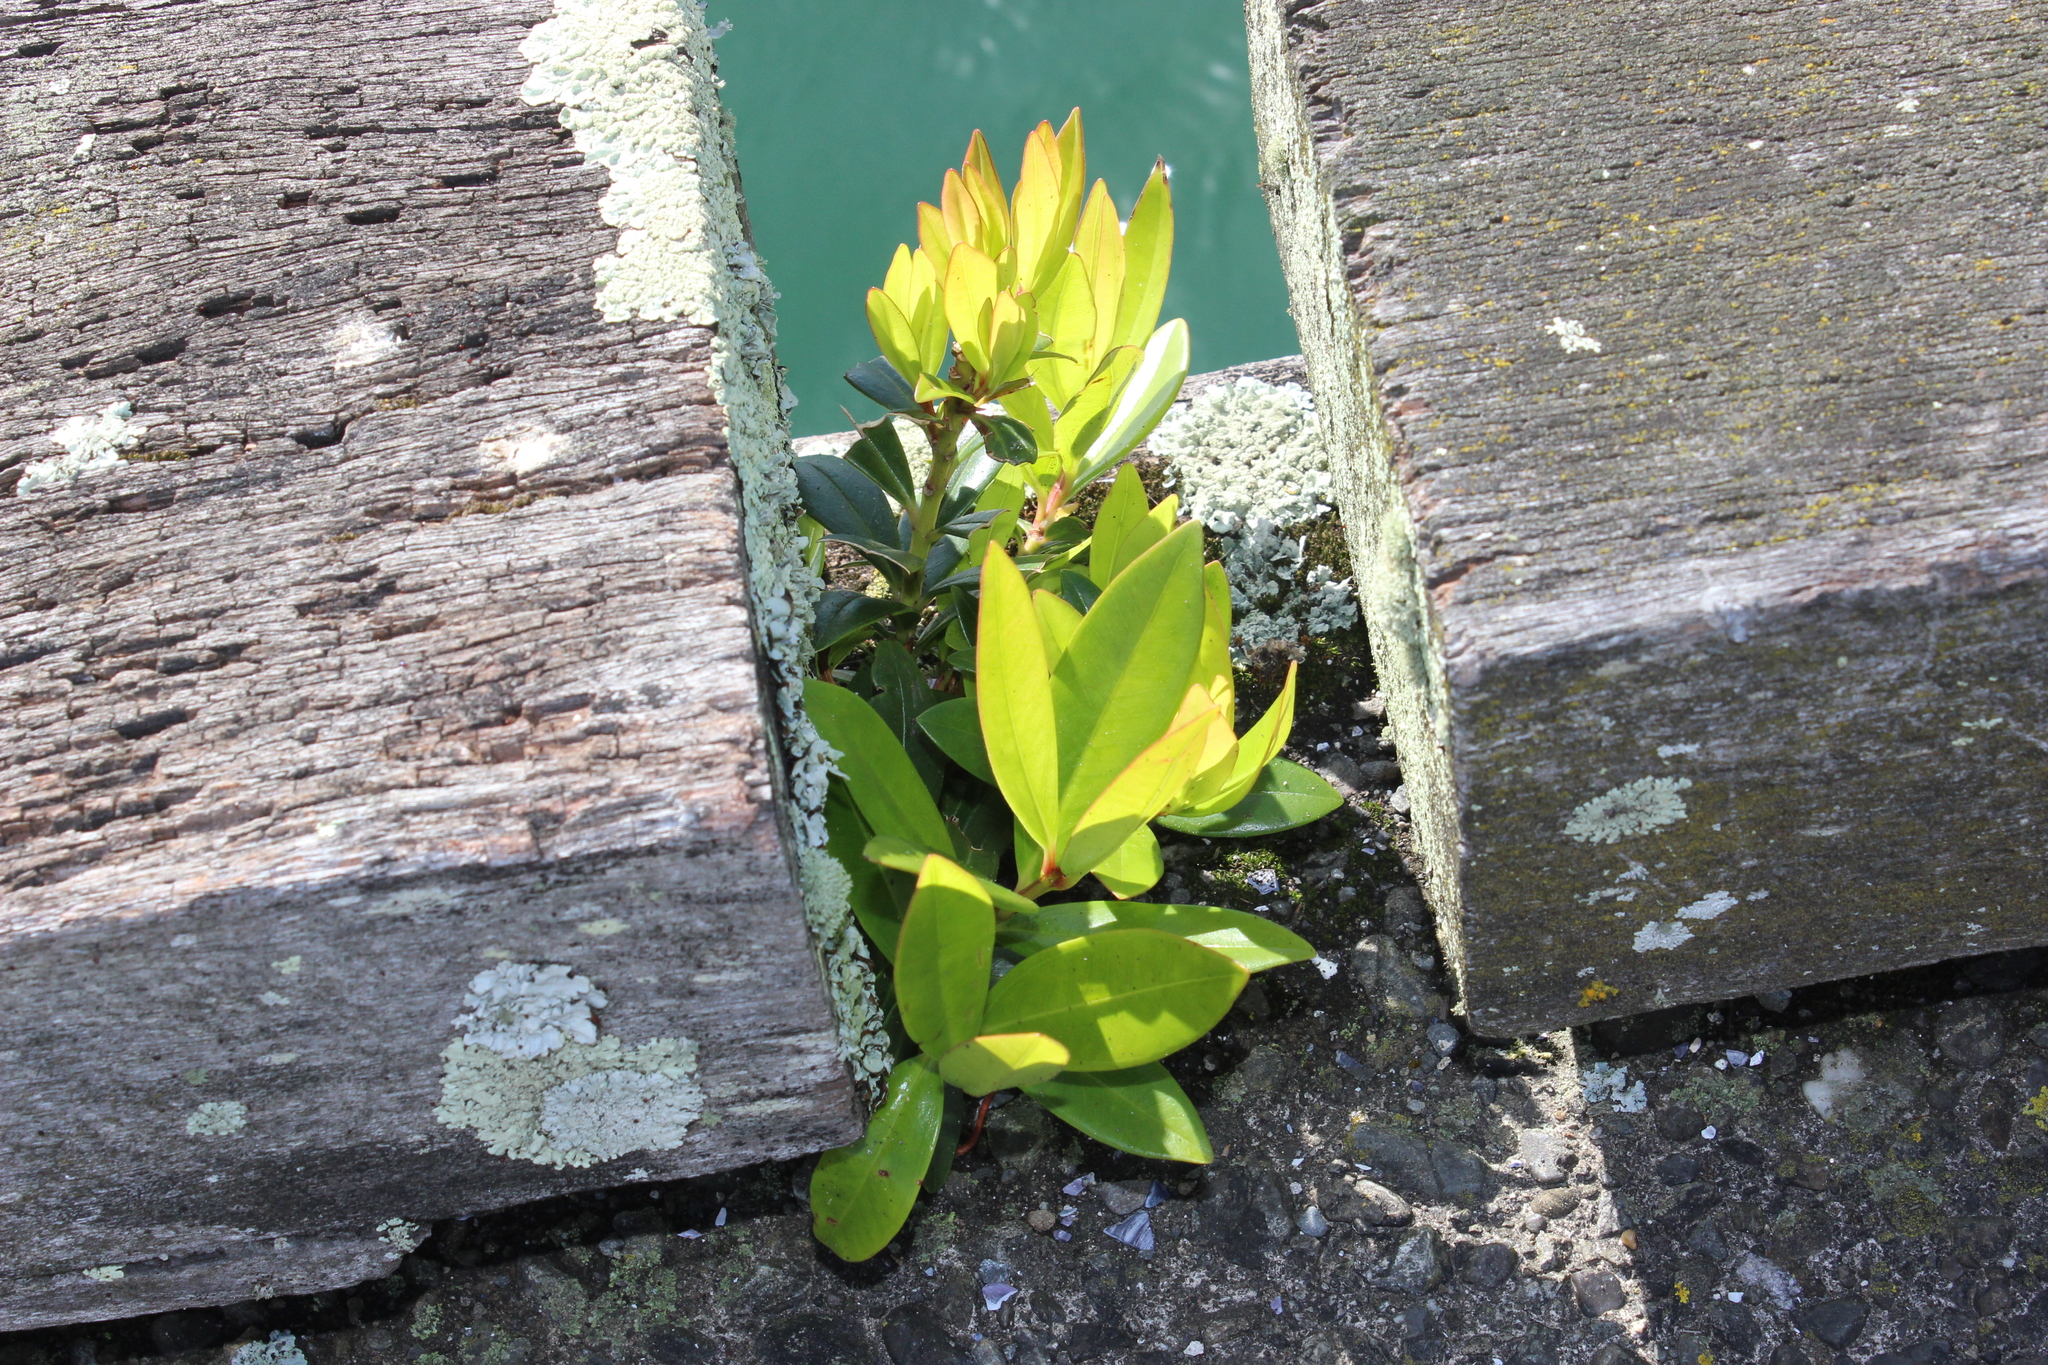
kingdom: Plantae
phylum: Tracheophyta
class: Magnoliopsida
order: Myrtales
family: Myrtaceae
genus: Metrosideros
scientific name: Metrosideros excelsa
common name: New zealand christmastree
